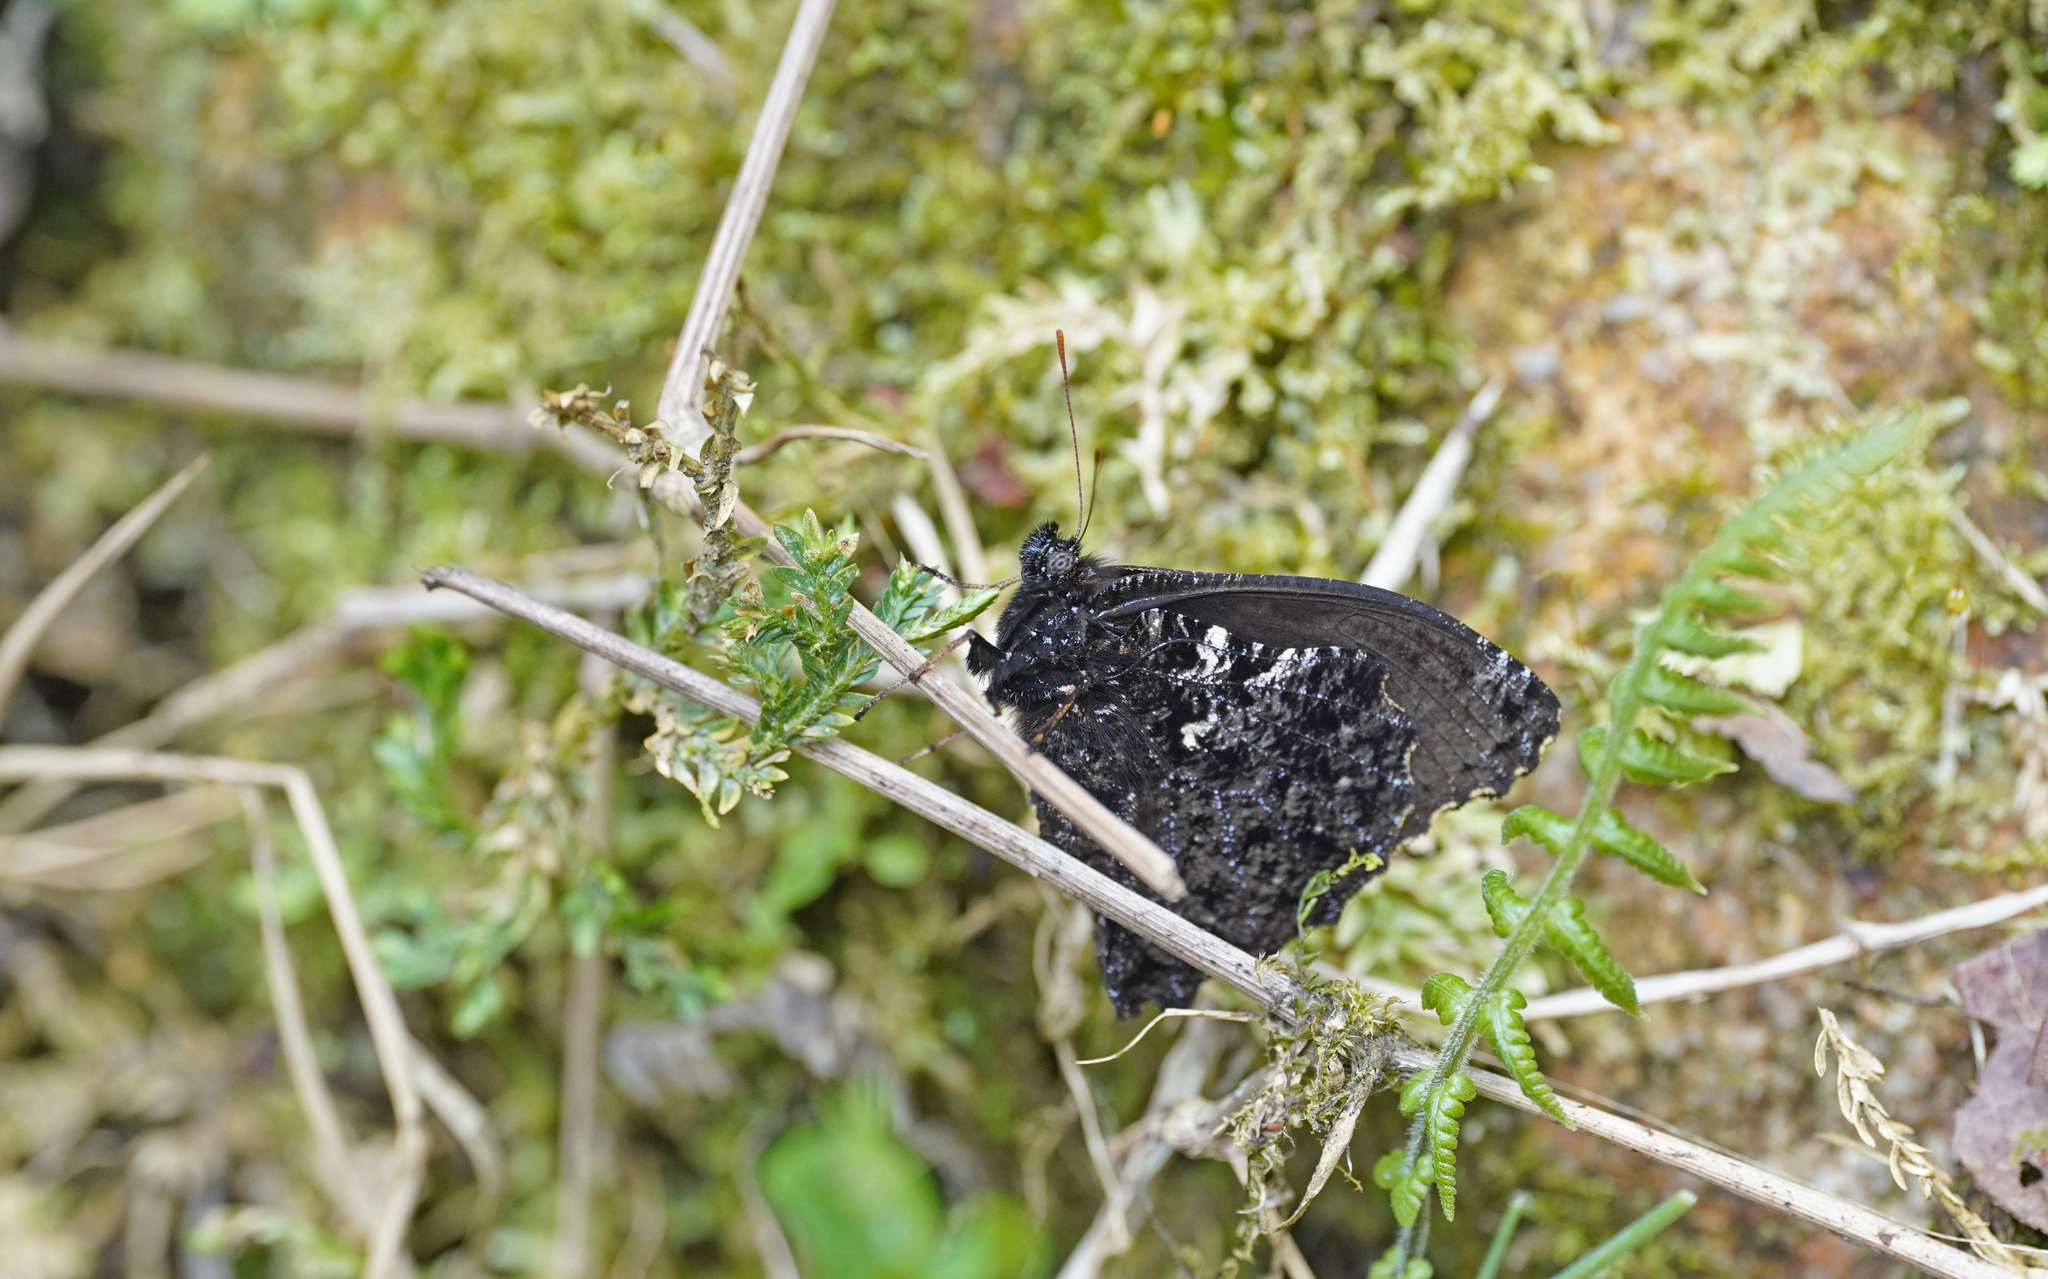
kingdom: Animalia
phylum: Arthropoda
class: Insecta
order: Lepidoptera
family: Nymphalidae
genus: Steroma
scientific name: Steroma superba
